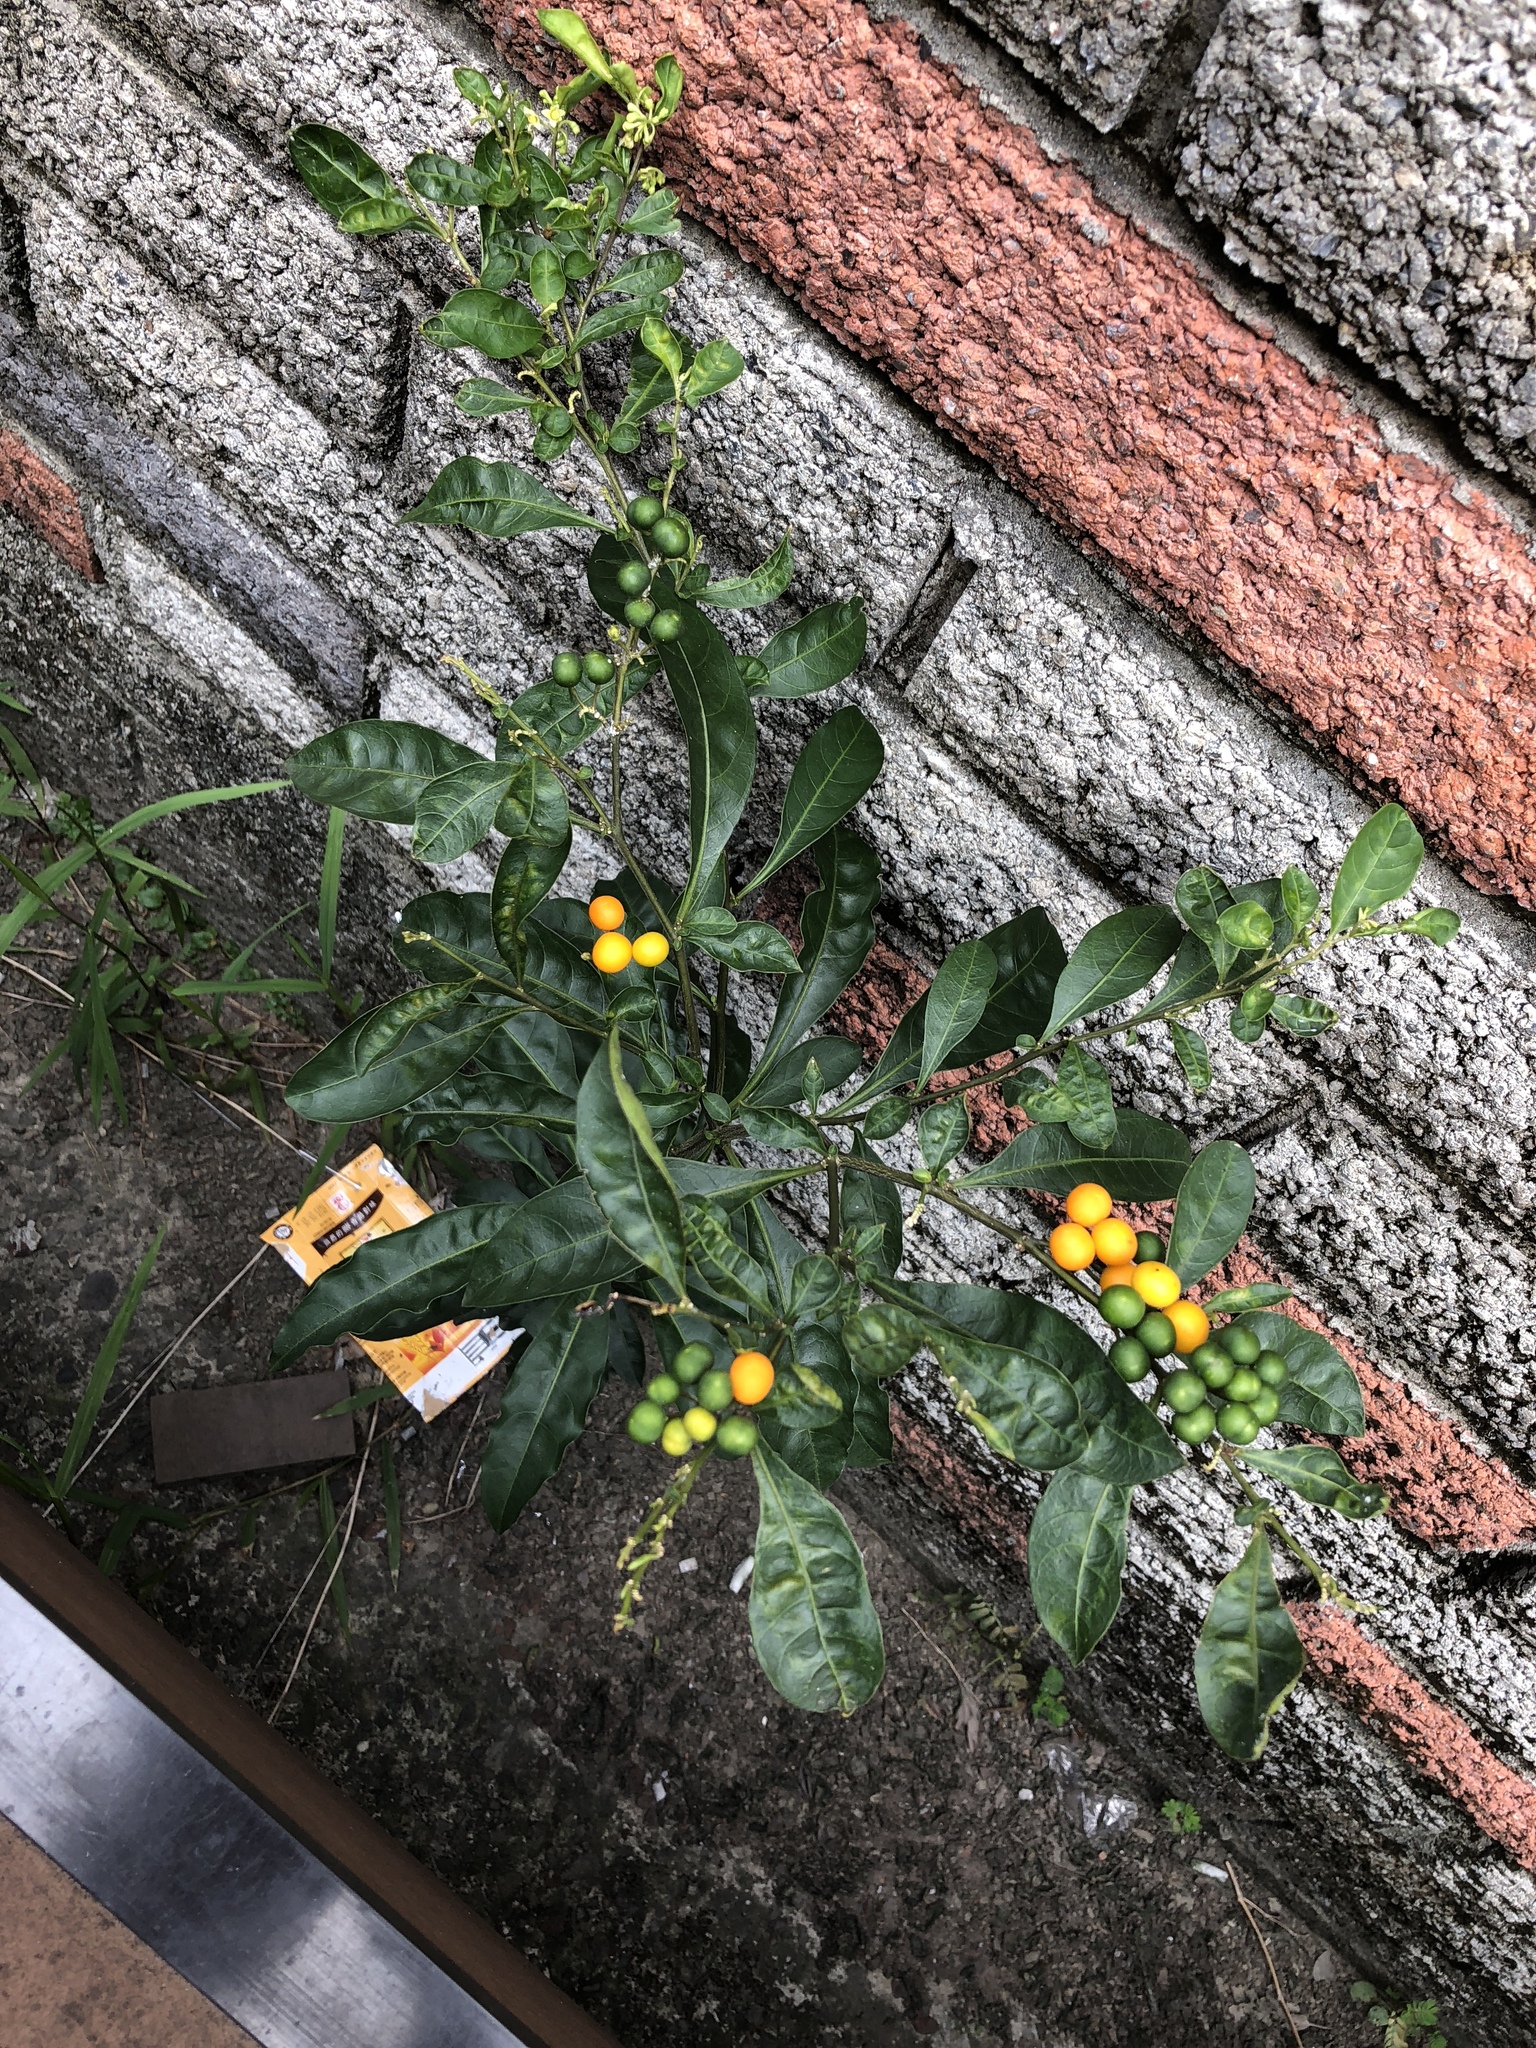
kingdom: Plantae
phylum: Tracheophyta
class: Magnoliopsida
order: Solanales
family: Solanaceae
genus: Solanum
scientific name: Solanum diphyllum
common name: Twoleaf nightshade
